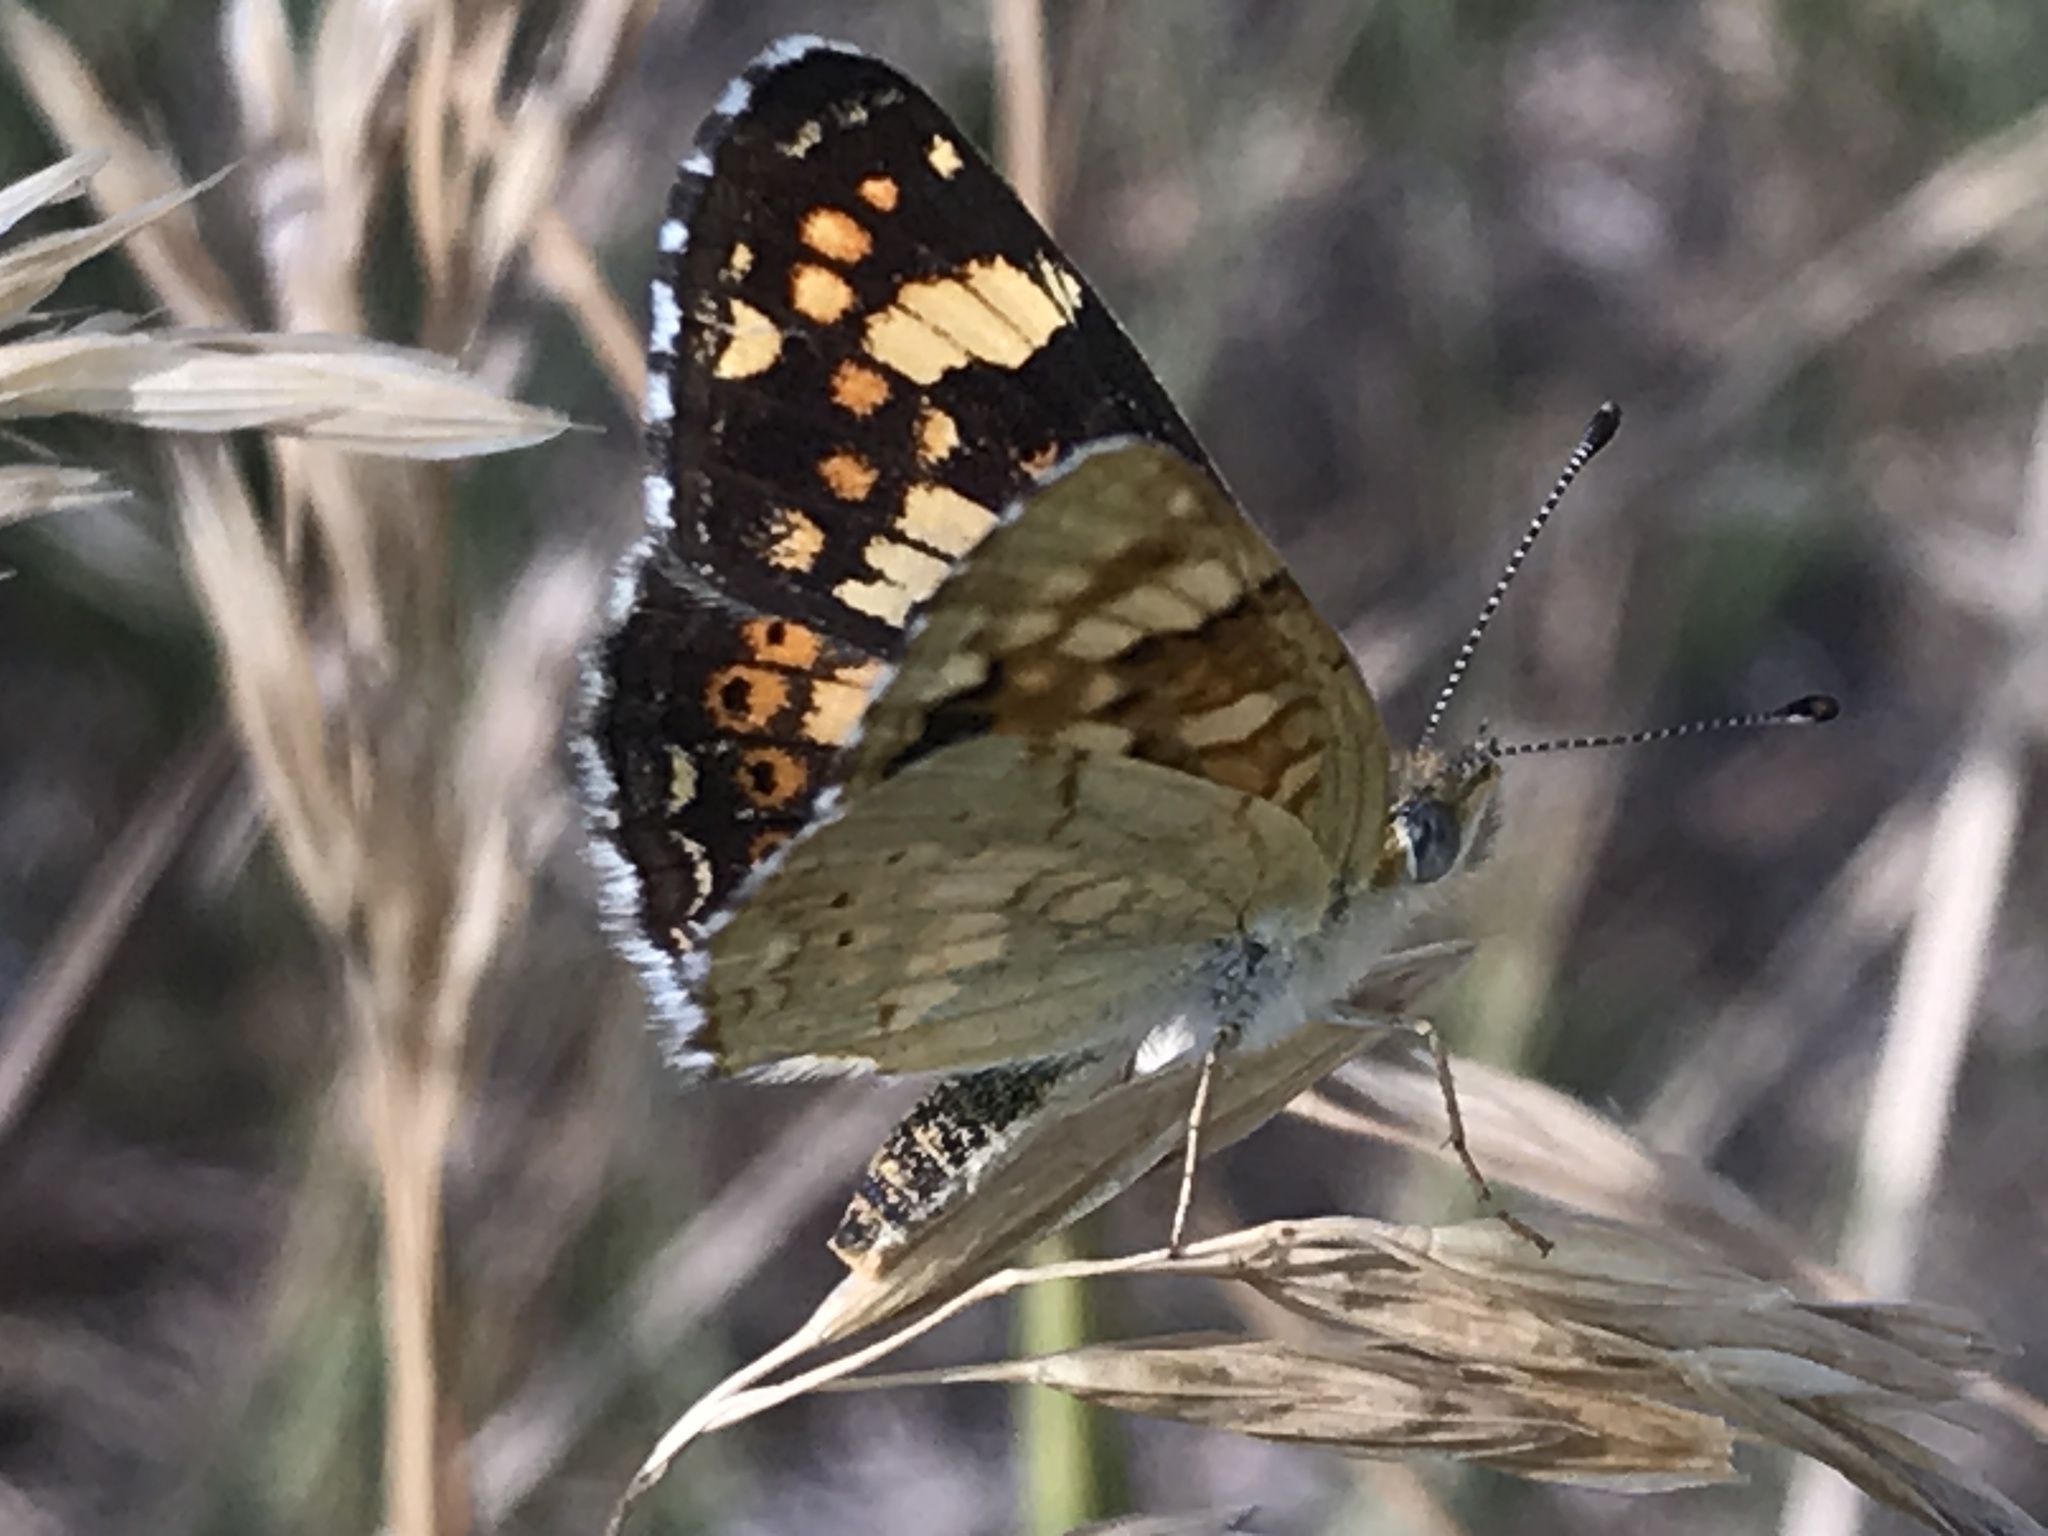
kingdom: Animalia
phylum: Arthropoda
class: Insecta
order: Lepidoptera
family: Nymphalidae
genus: Phyciodes
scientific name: Phyciodes picta
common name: Painted crescent
